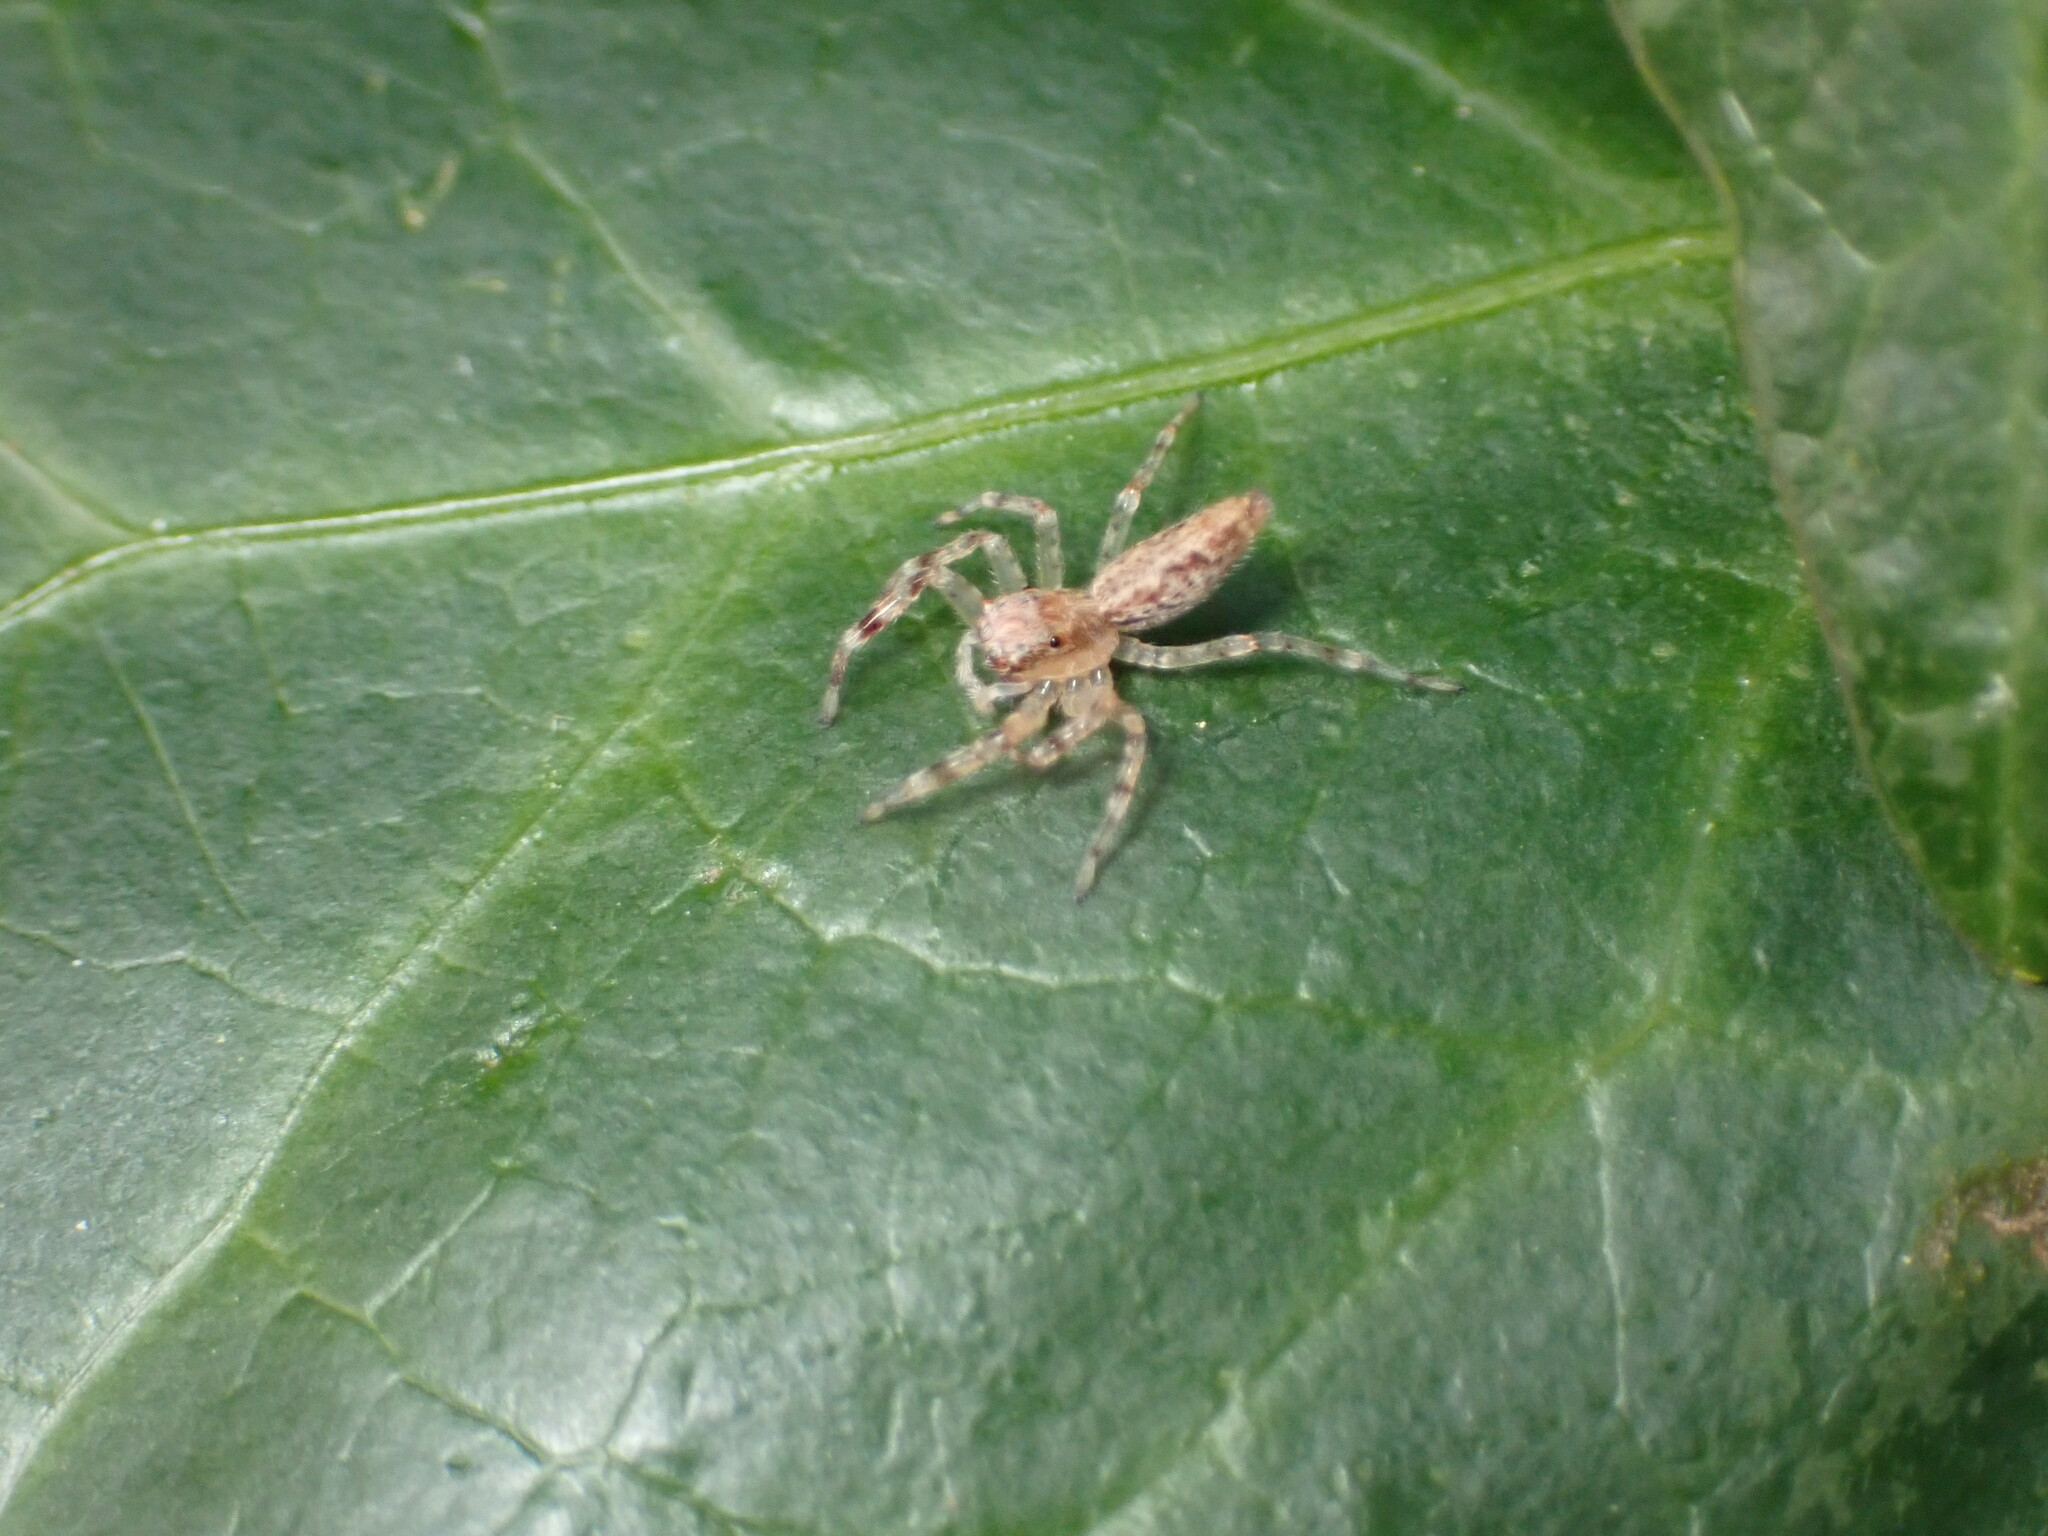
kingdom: Animalia
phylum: Arthropoda
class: Arachnida
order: Araneae
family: Salticidae
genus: Helpis
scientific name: Helpis minitabunda
